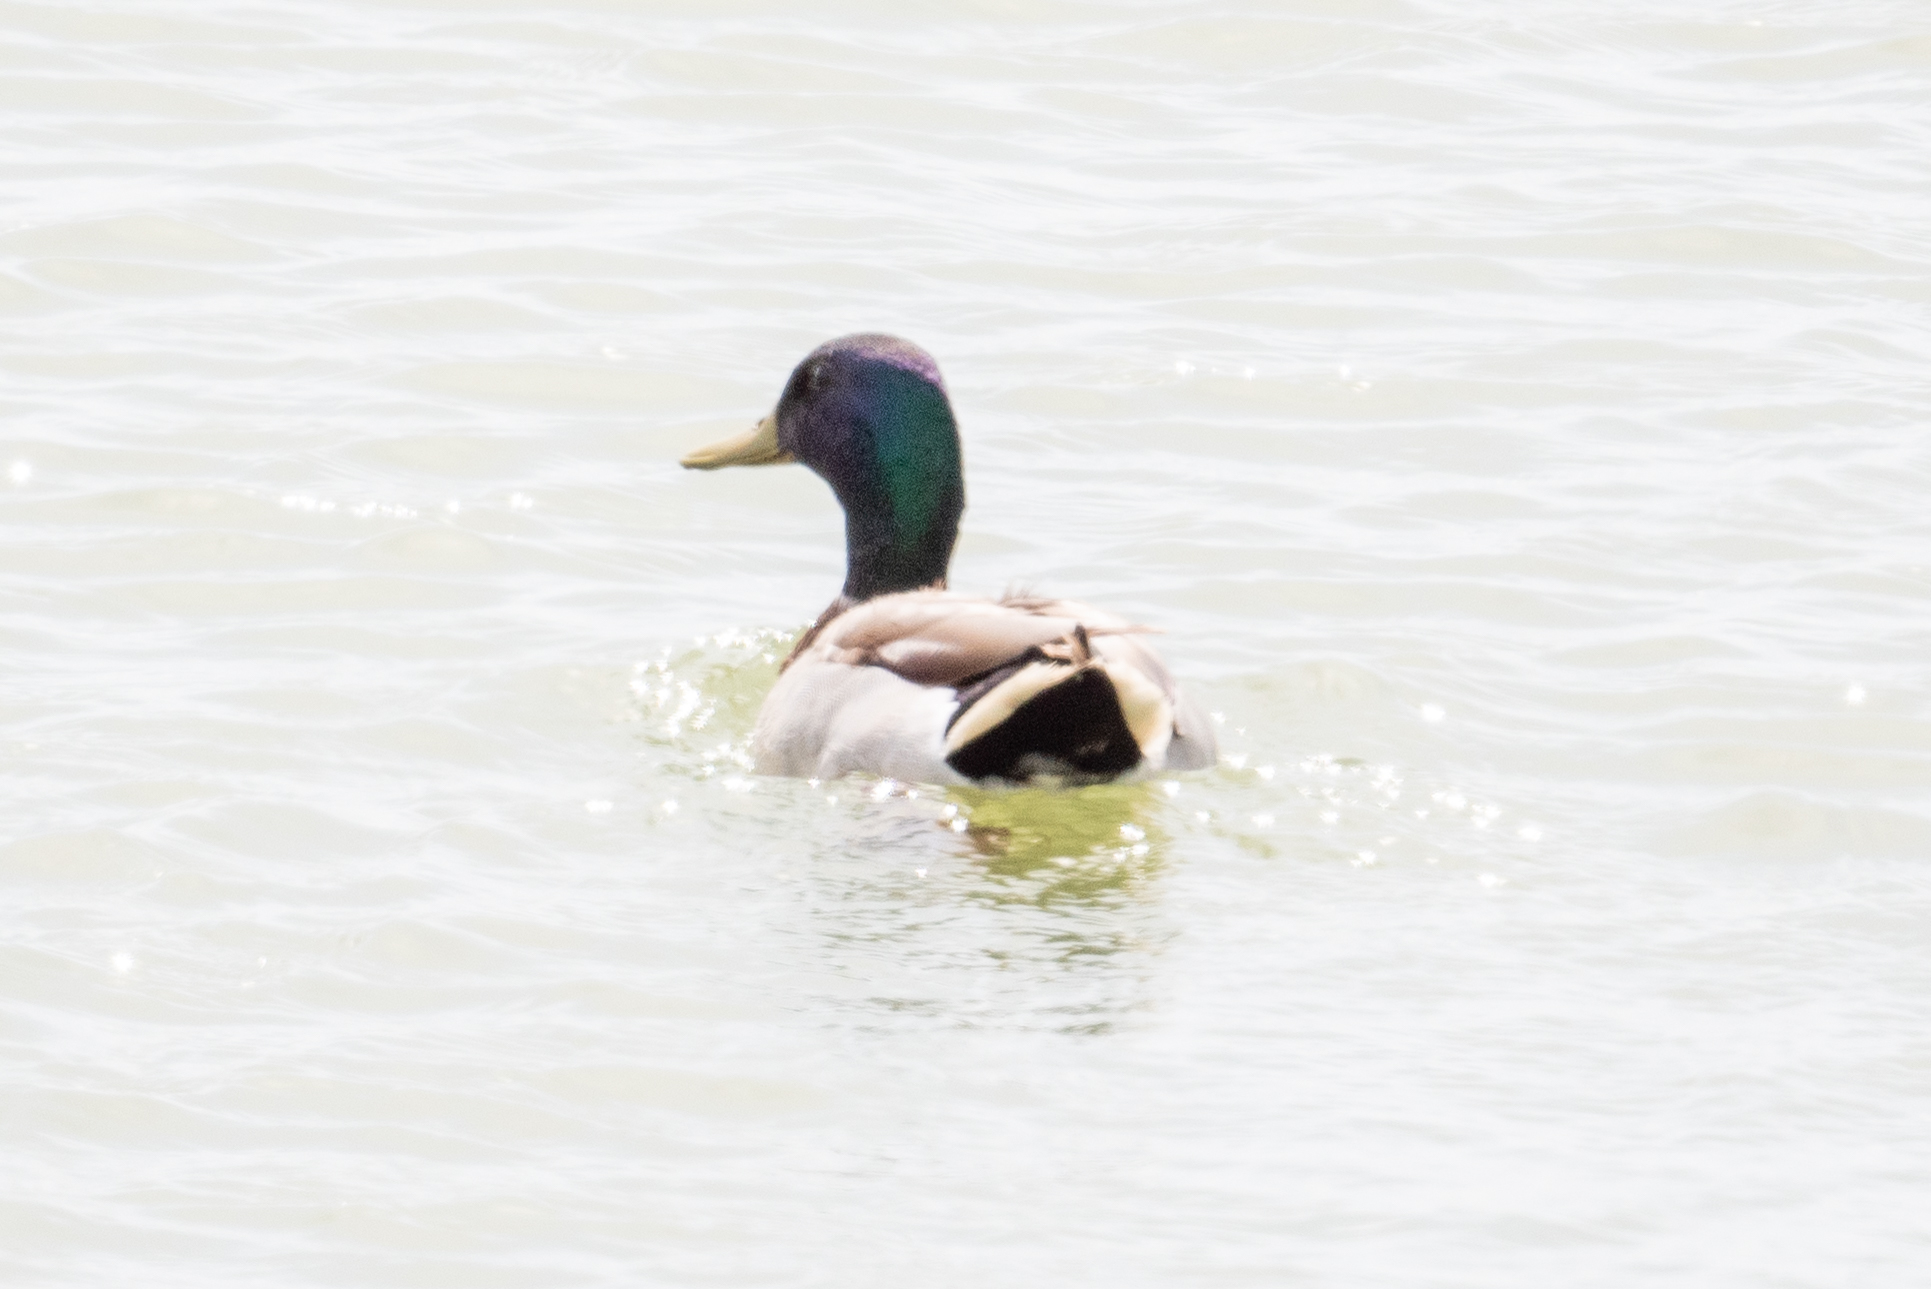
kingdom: Animalia
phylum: Chordata
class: Aves
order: Anseriformes
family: Anatidae
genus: Anas
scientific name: Anas platyrhynchos
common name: Mallard
